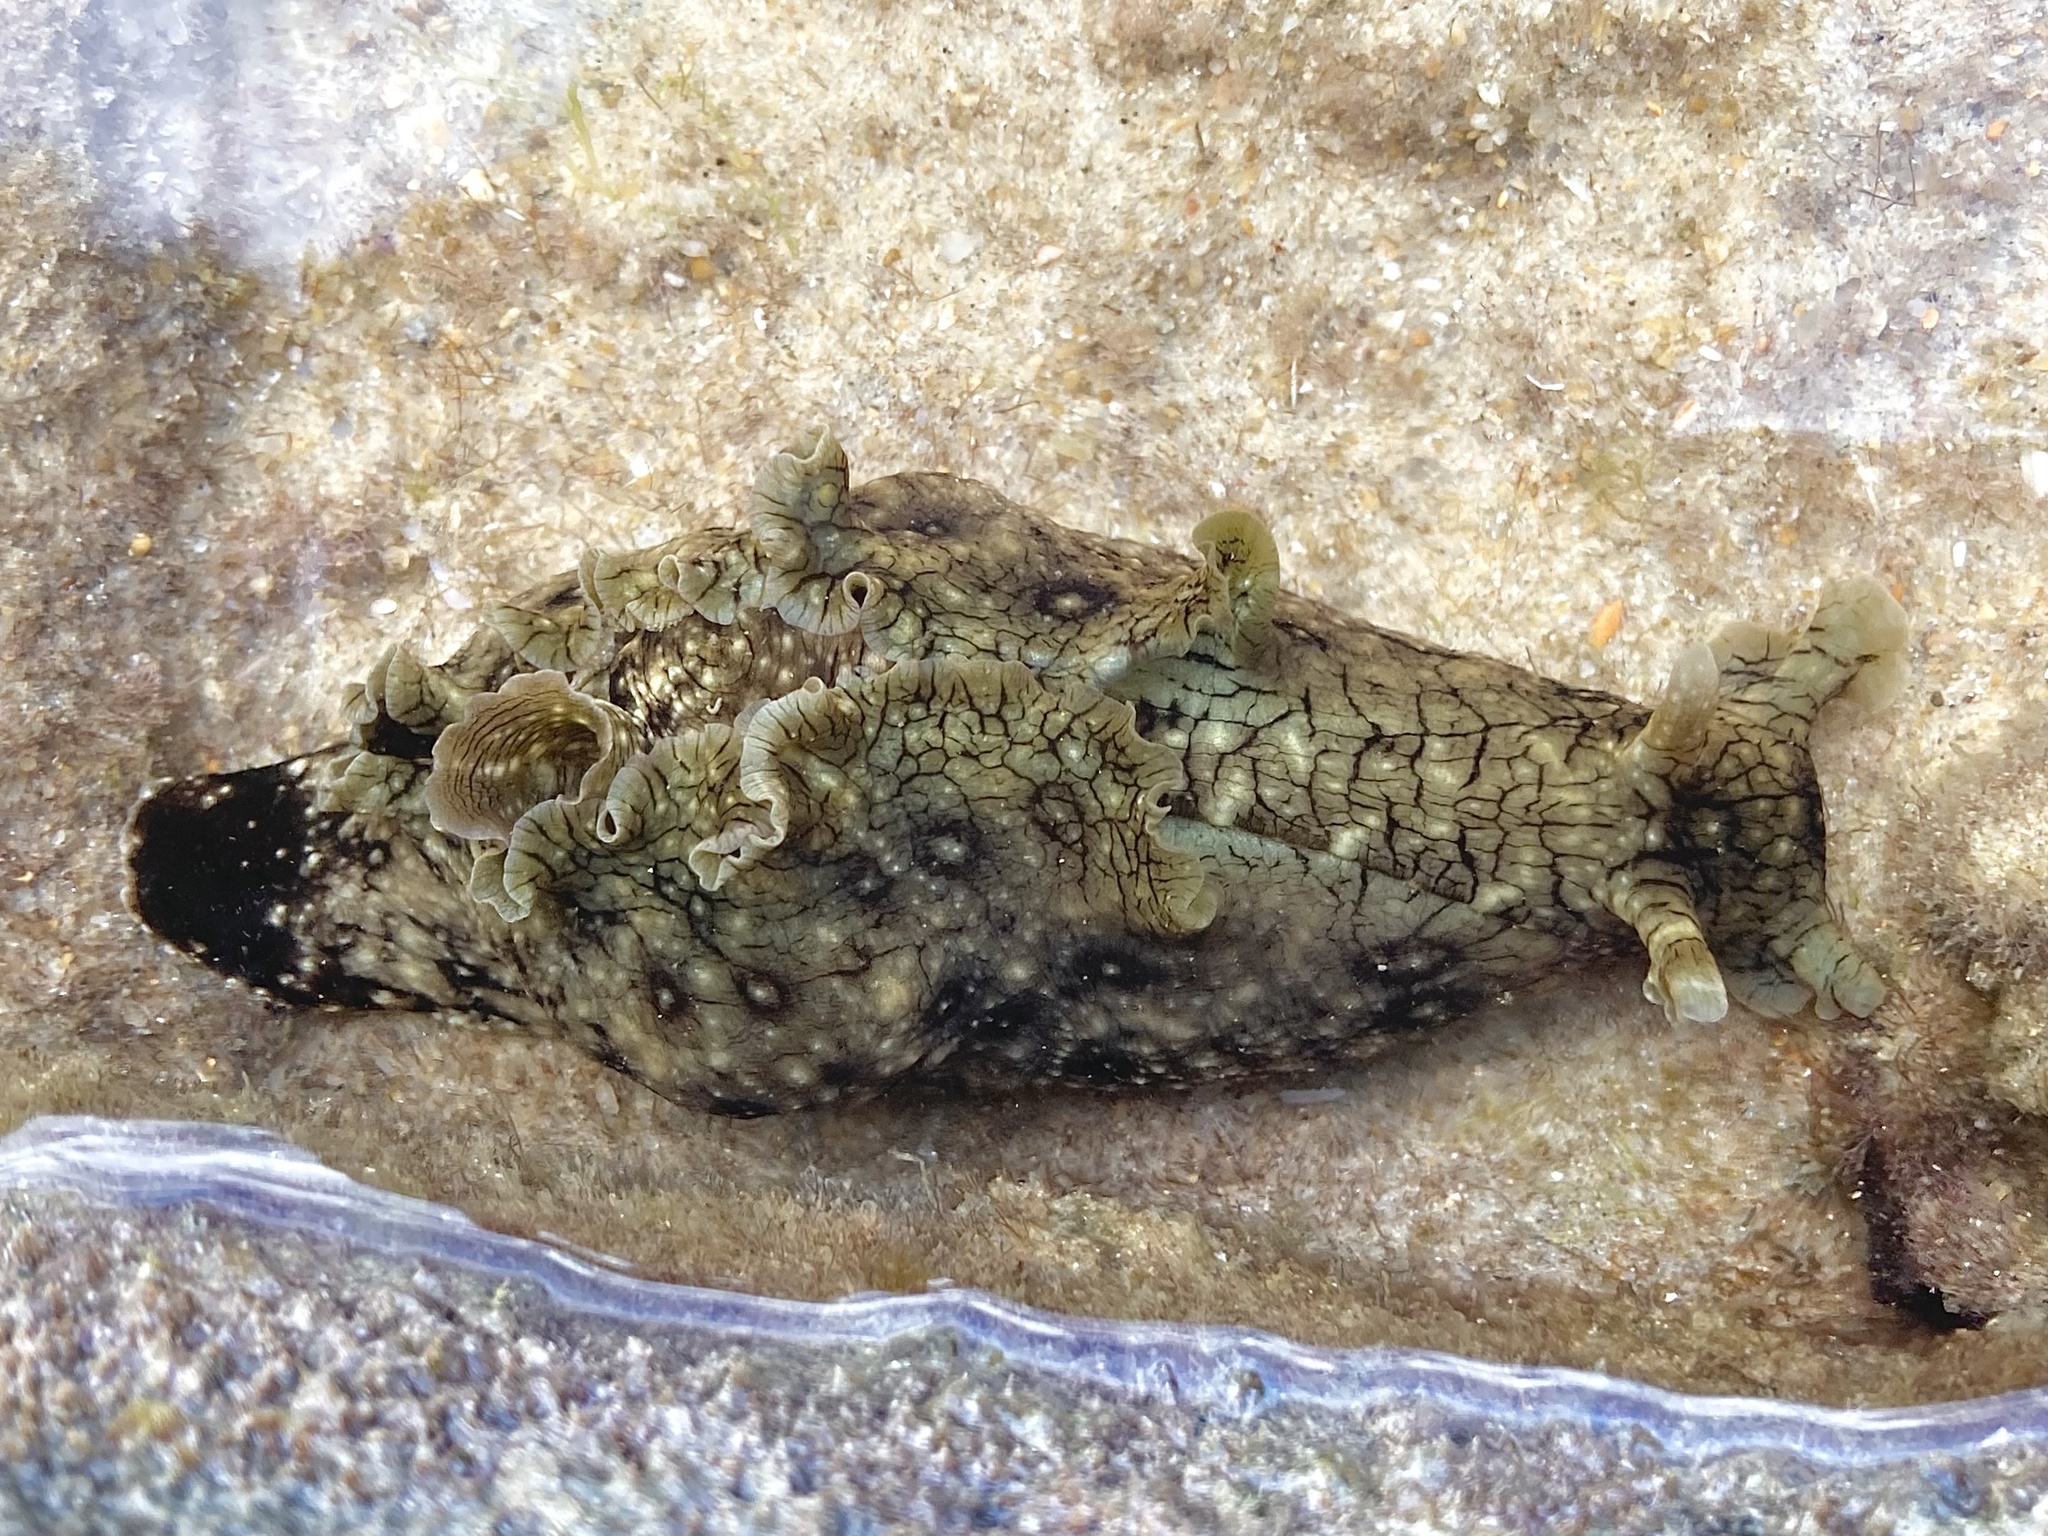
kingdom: Animalia
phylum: Mollusca
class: Gastropoda
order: Aplysiida
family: Aplysiidae
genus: Aplysia
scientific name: Aplysia argus
